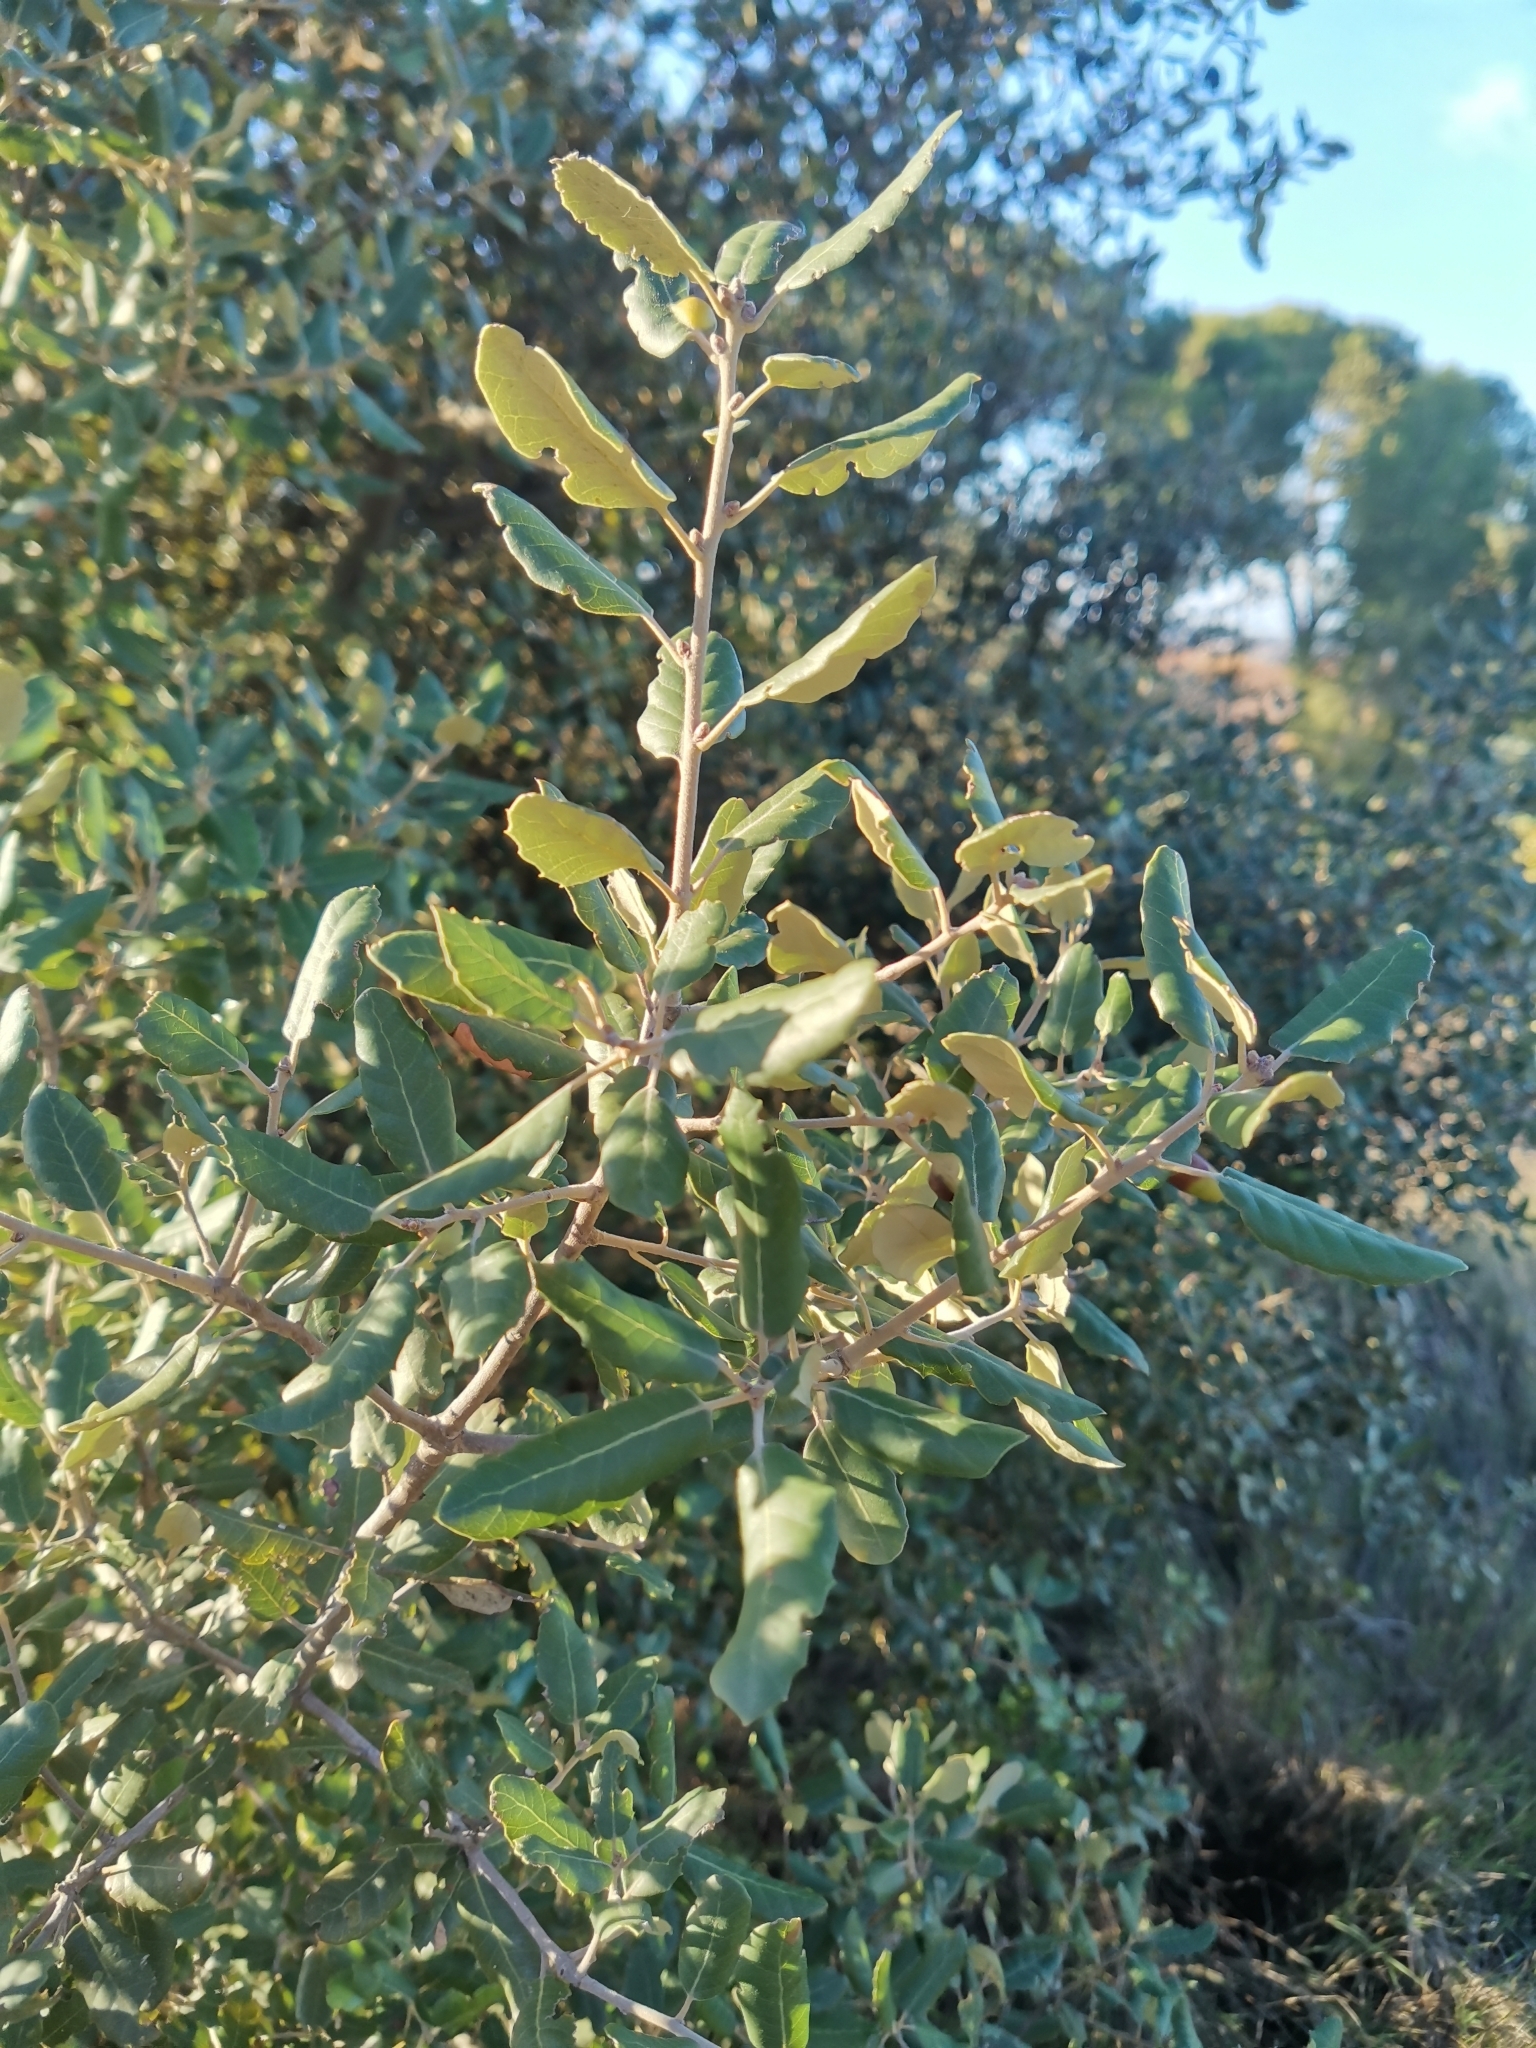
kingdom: Plantae
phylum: Tracheophyta
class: Magnoliopsida
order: Fagales
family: Fagaceae
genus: Quercus
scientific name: Quercus ilex
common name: Evergreen oak
